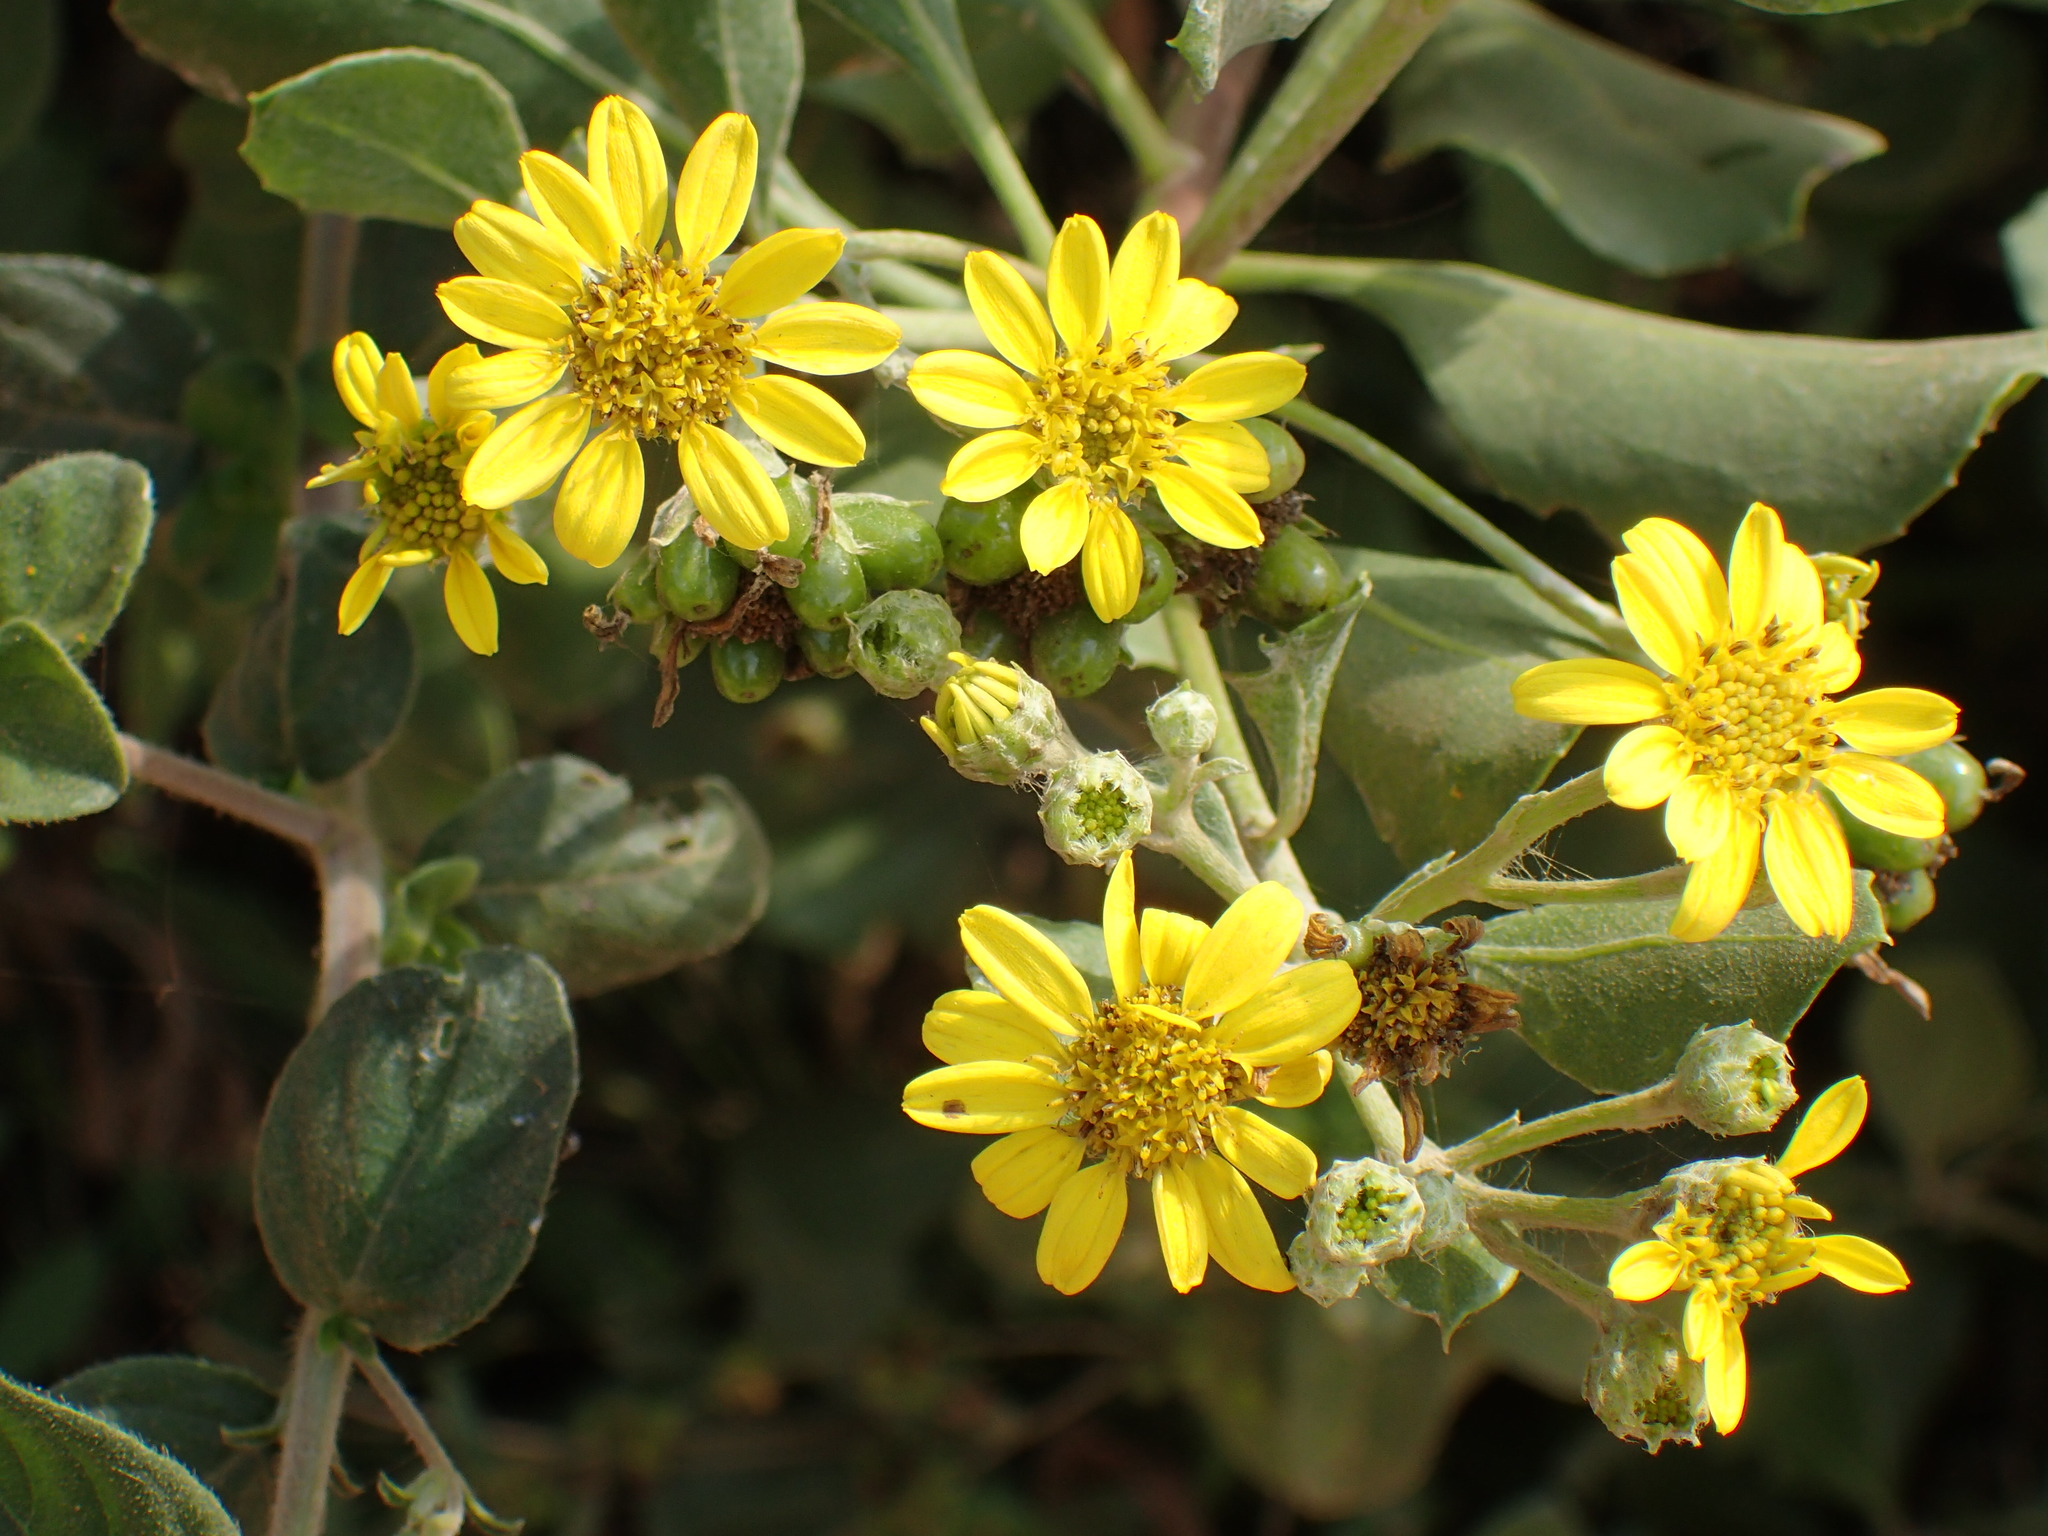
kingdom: Plantae
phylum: Tracheophyta
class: Magnoliopsida
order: Asterales
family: Asteraceae
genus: Osteospermum
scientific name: Osteospermum moniliferum
